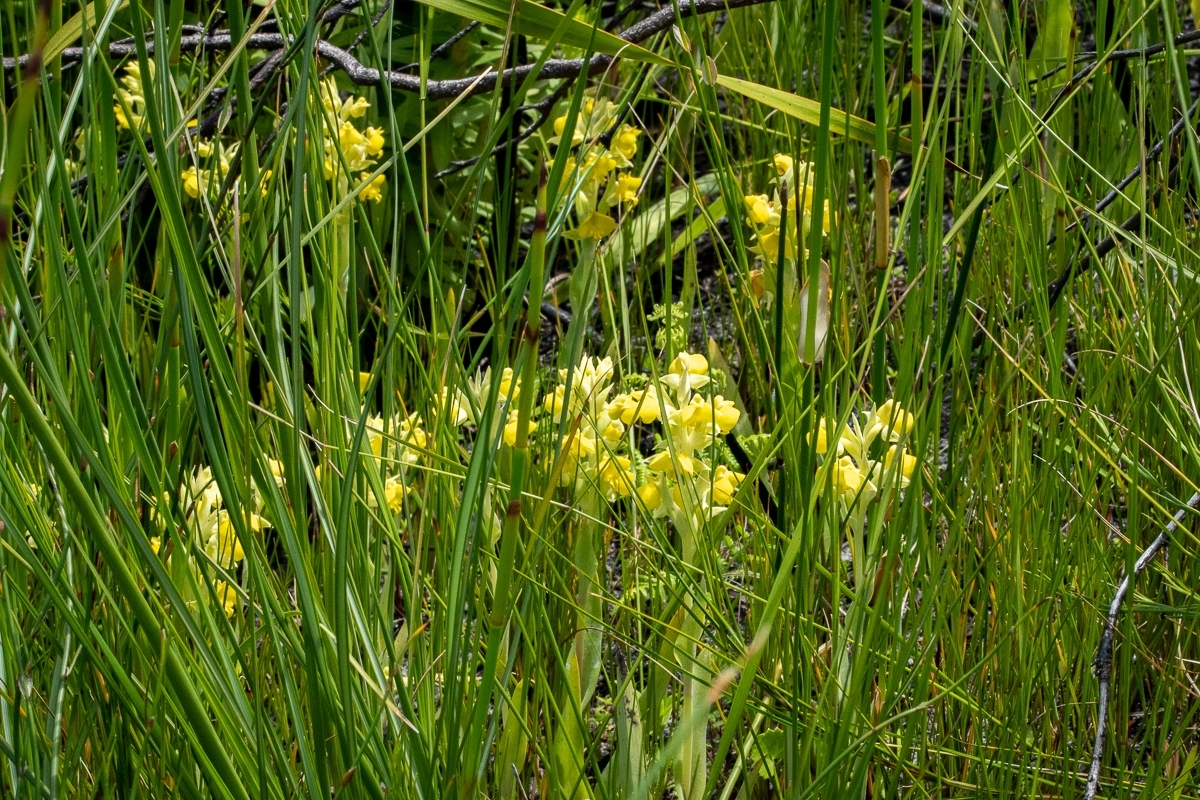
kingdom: Plantae
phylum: Tracheophyta
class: Liliopsida
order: Asparagales
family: Orchidaceae
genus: Pterygodium
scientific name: Pterygodium acutifolium
